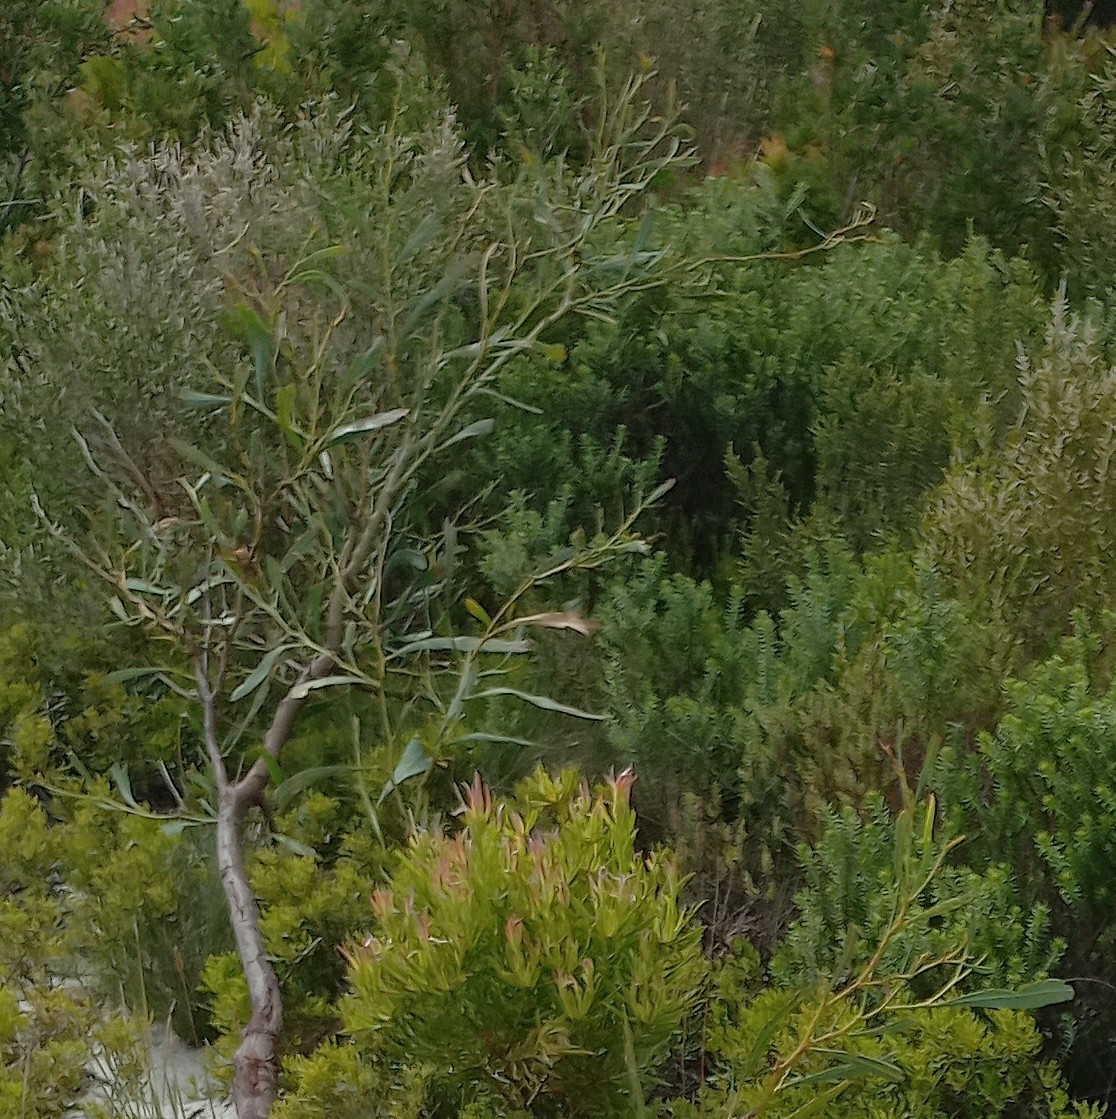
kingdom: Plantae
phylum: Tracheophyta
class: Magnoliopsida
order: Fabales
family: Fabaceae
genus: Acacia
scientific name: Acacia saligna
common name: Orange wattle
